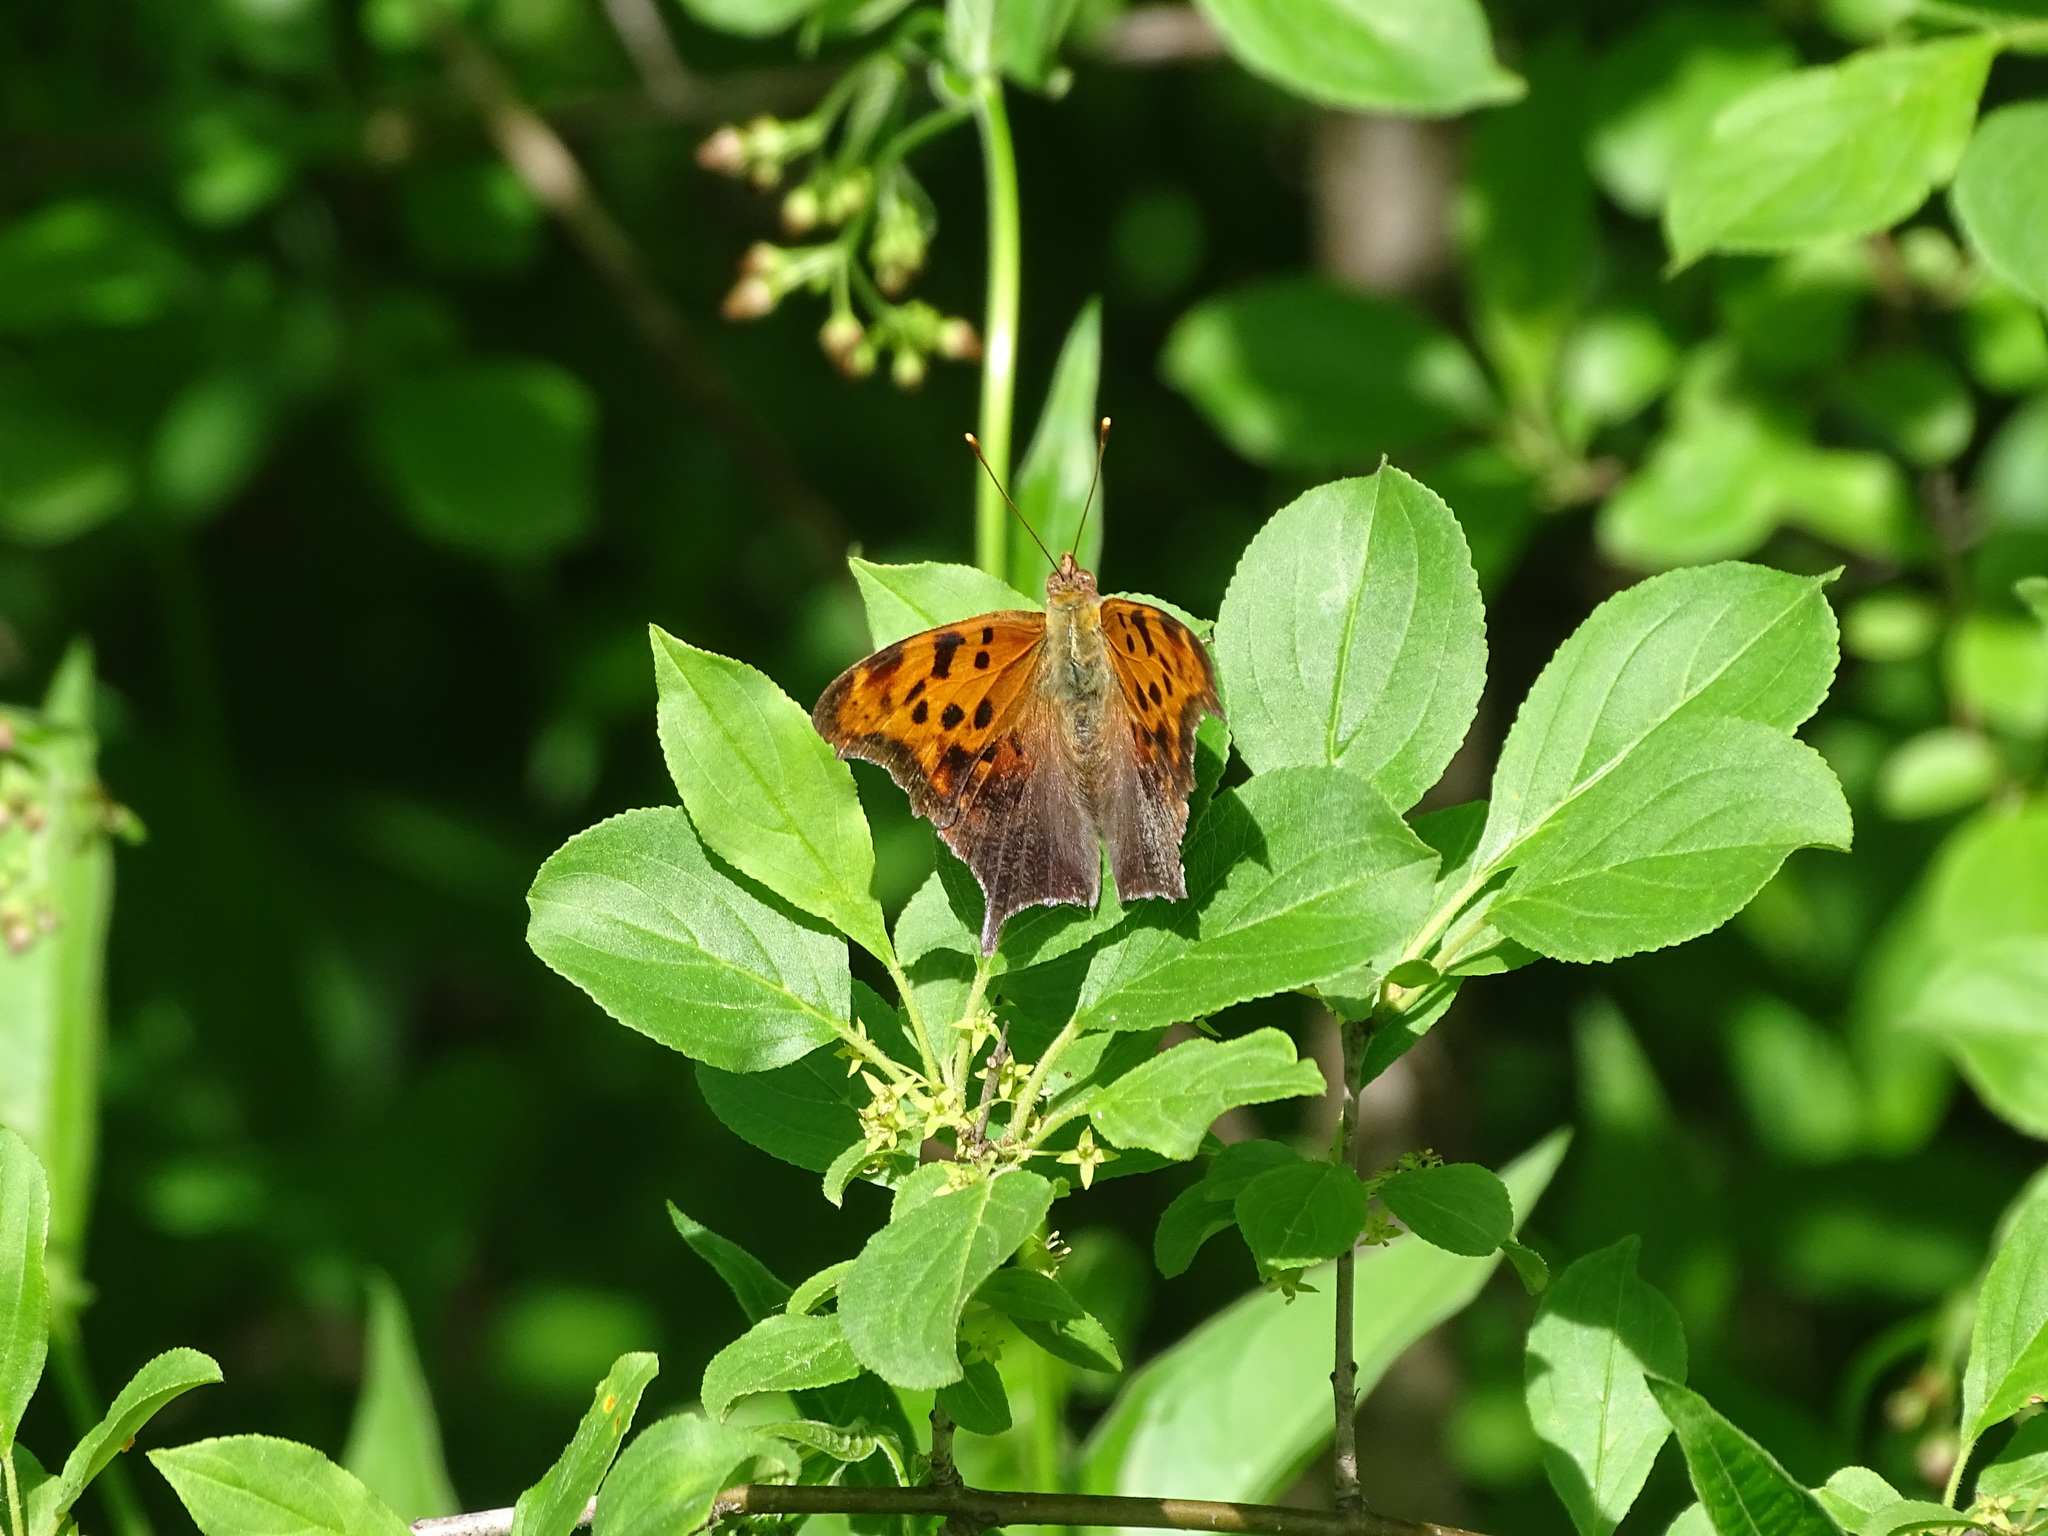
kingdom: Animalia
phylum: Arthropoda
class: Insecta
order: Lepidoptera
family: Nymphalidae
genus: Polygonia
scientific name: Polygonia interrogationis
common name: Question mark
